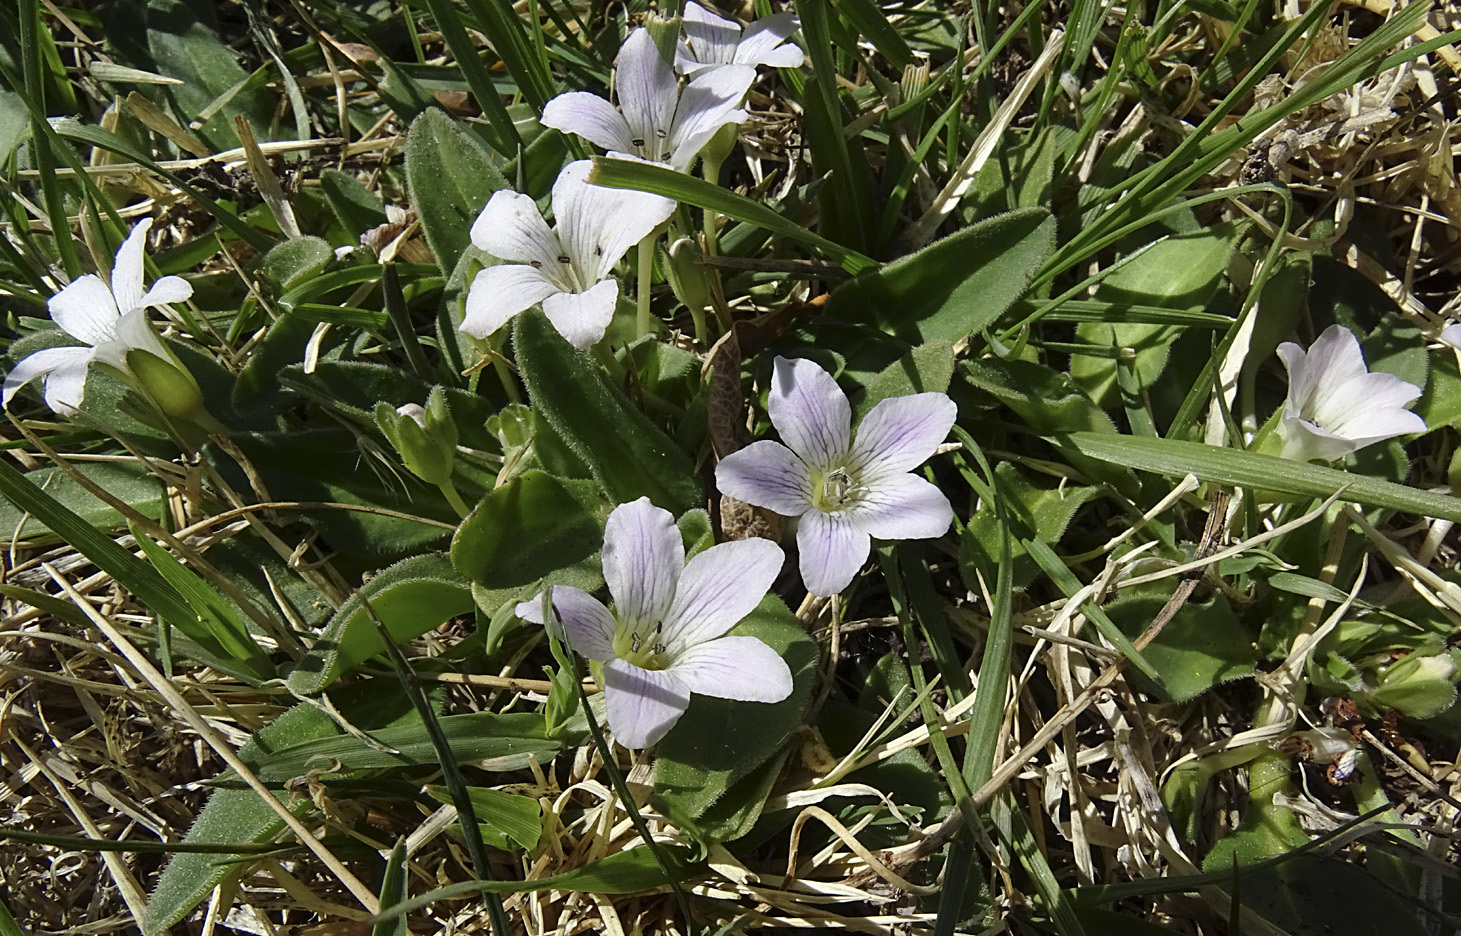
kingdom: Plantae
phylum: Tracheophyta
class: Magnoliopsida
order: Boraginales
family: Hydrophyllaceae
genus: Hesperochiron
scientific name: Hesperochiron californicus
